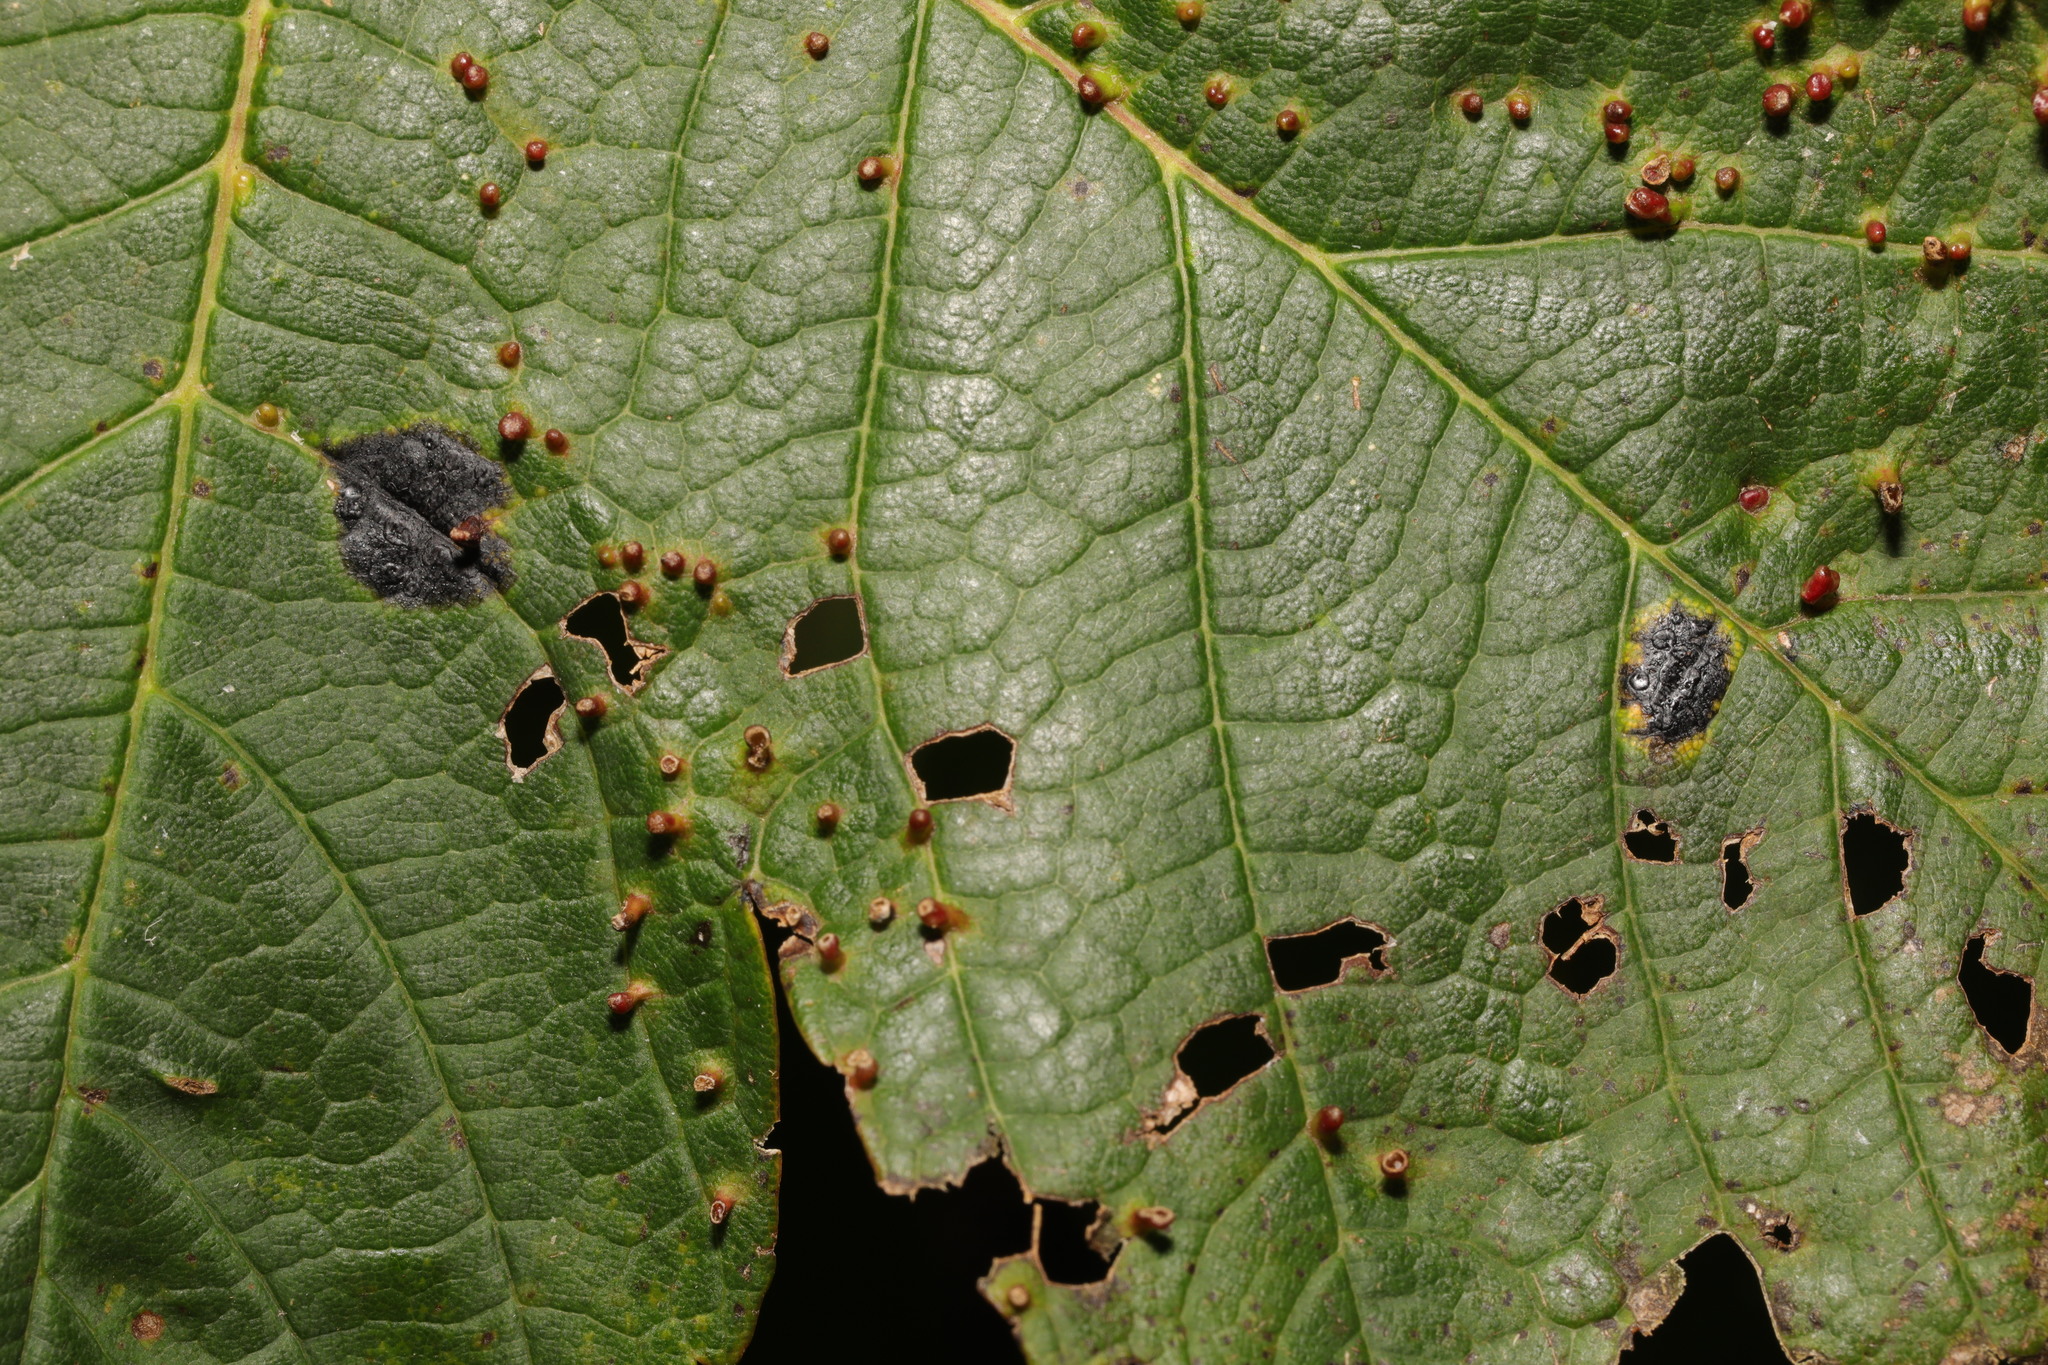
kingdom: Fungi
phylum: Ascomycota
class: Leotiomycetes
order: Rhytismatales
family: Rhytismataceae
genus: Rhytisma
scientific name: Rhytisma acerinum
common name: European tar spot
